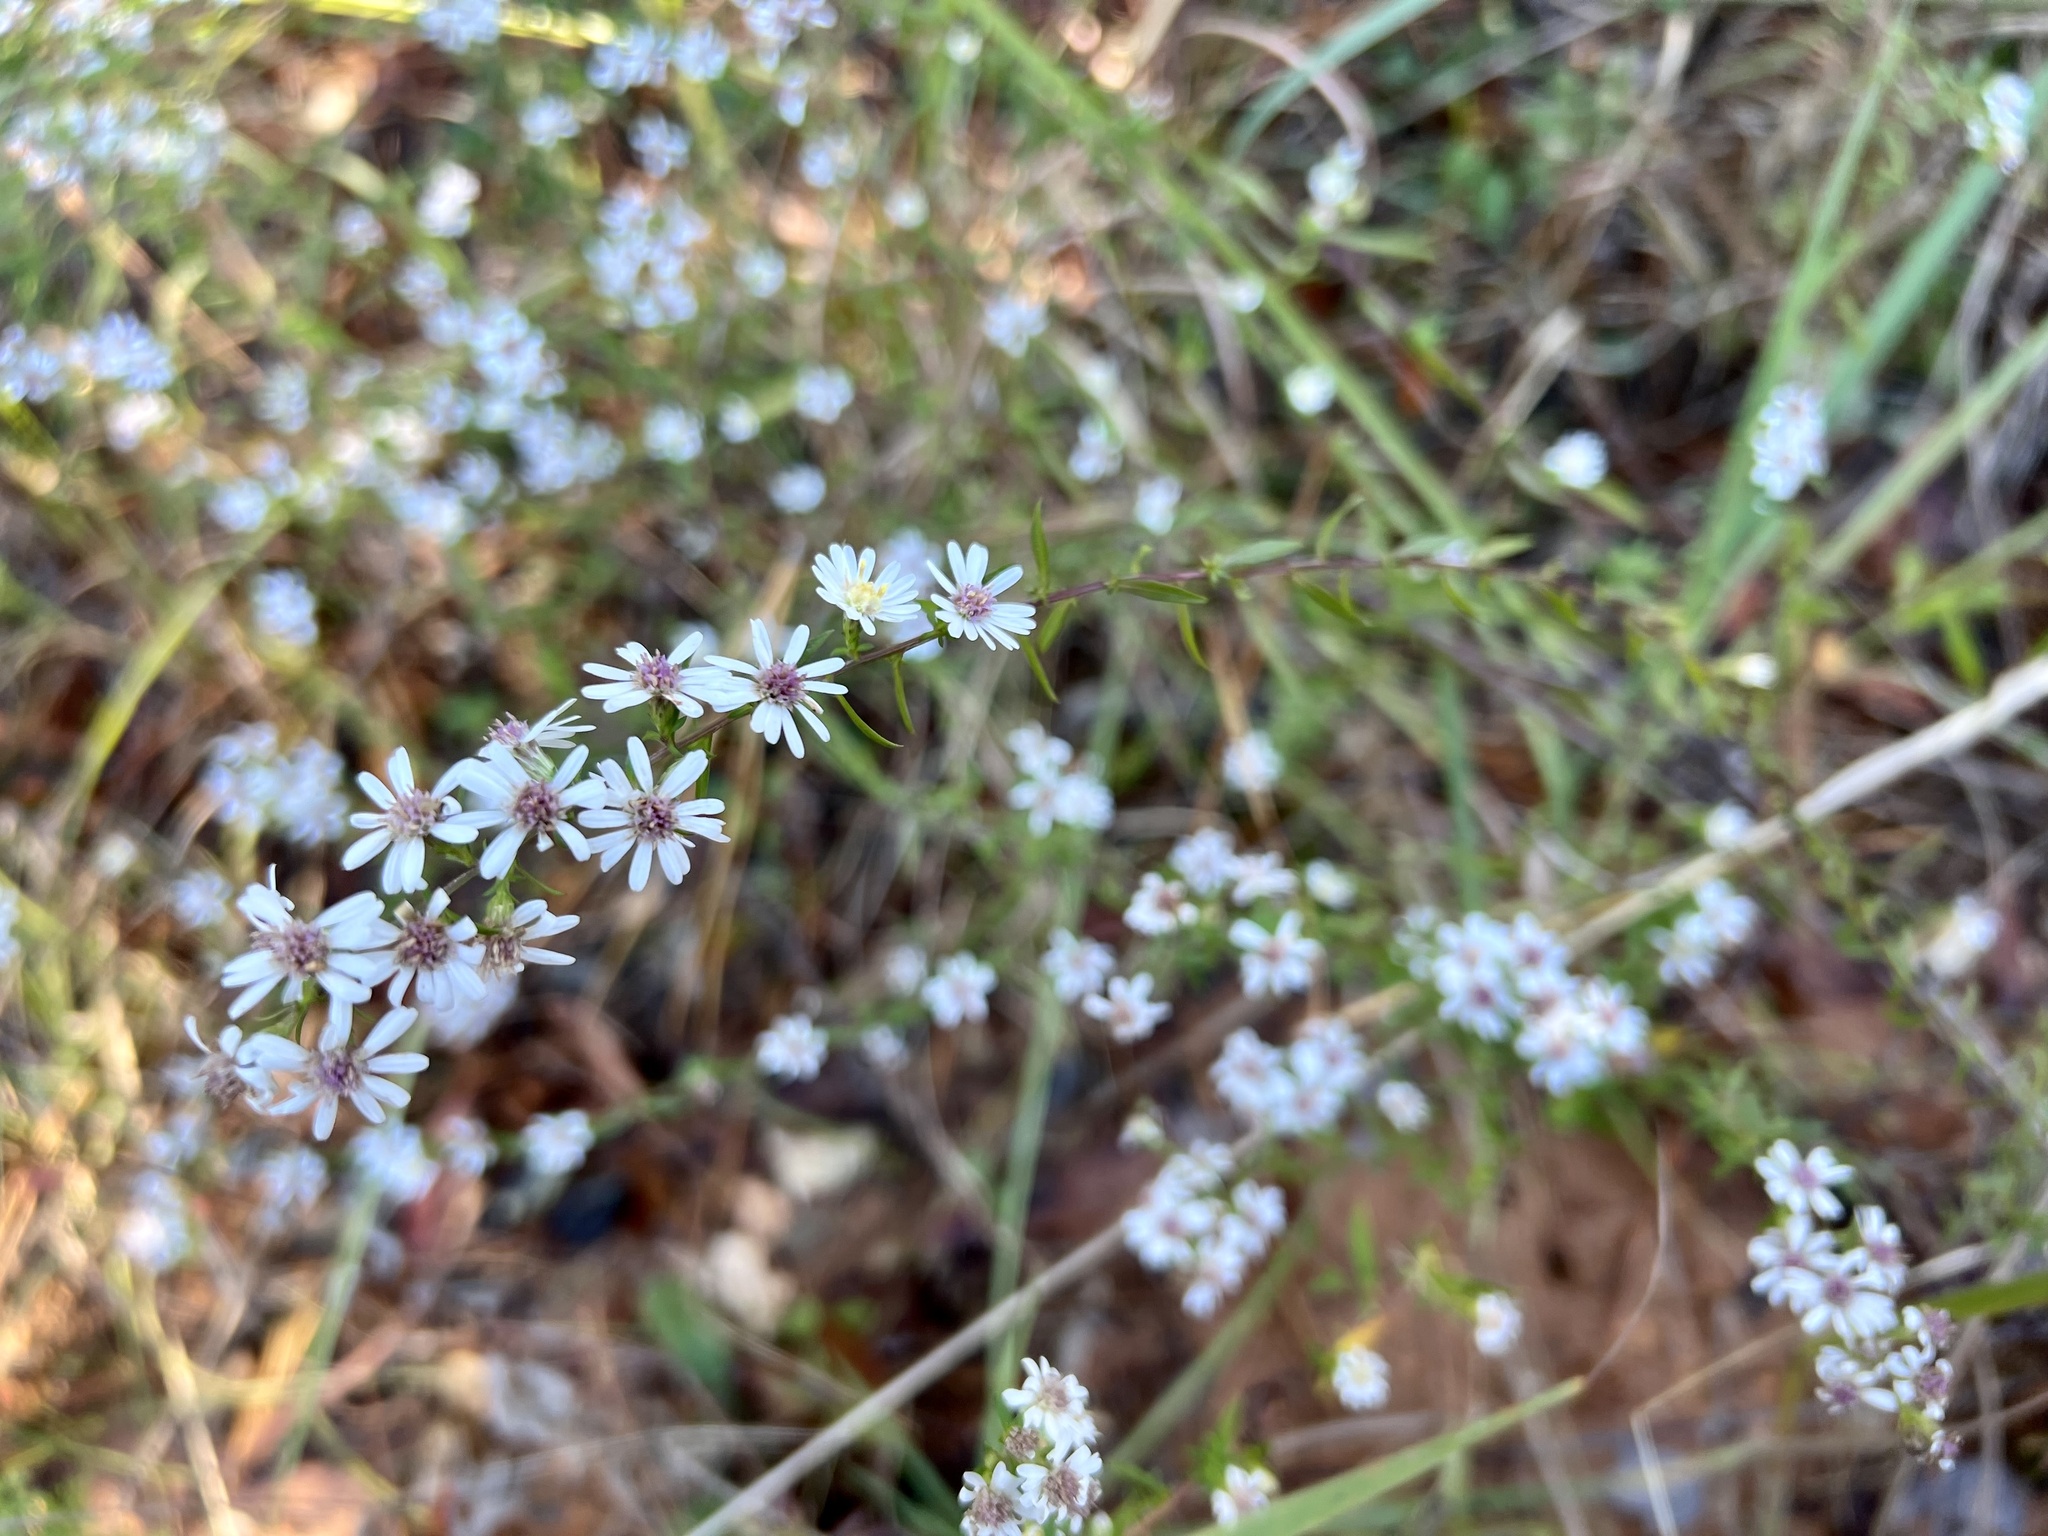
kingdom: Plantae
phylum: Tracheophyta
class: Magnoliopsida
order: Asterales
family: Asteraceae
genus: Symphyotrichum
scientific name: Symphyotrichum lateriflorum
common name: Calico aster
